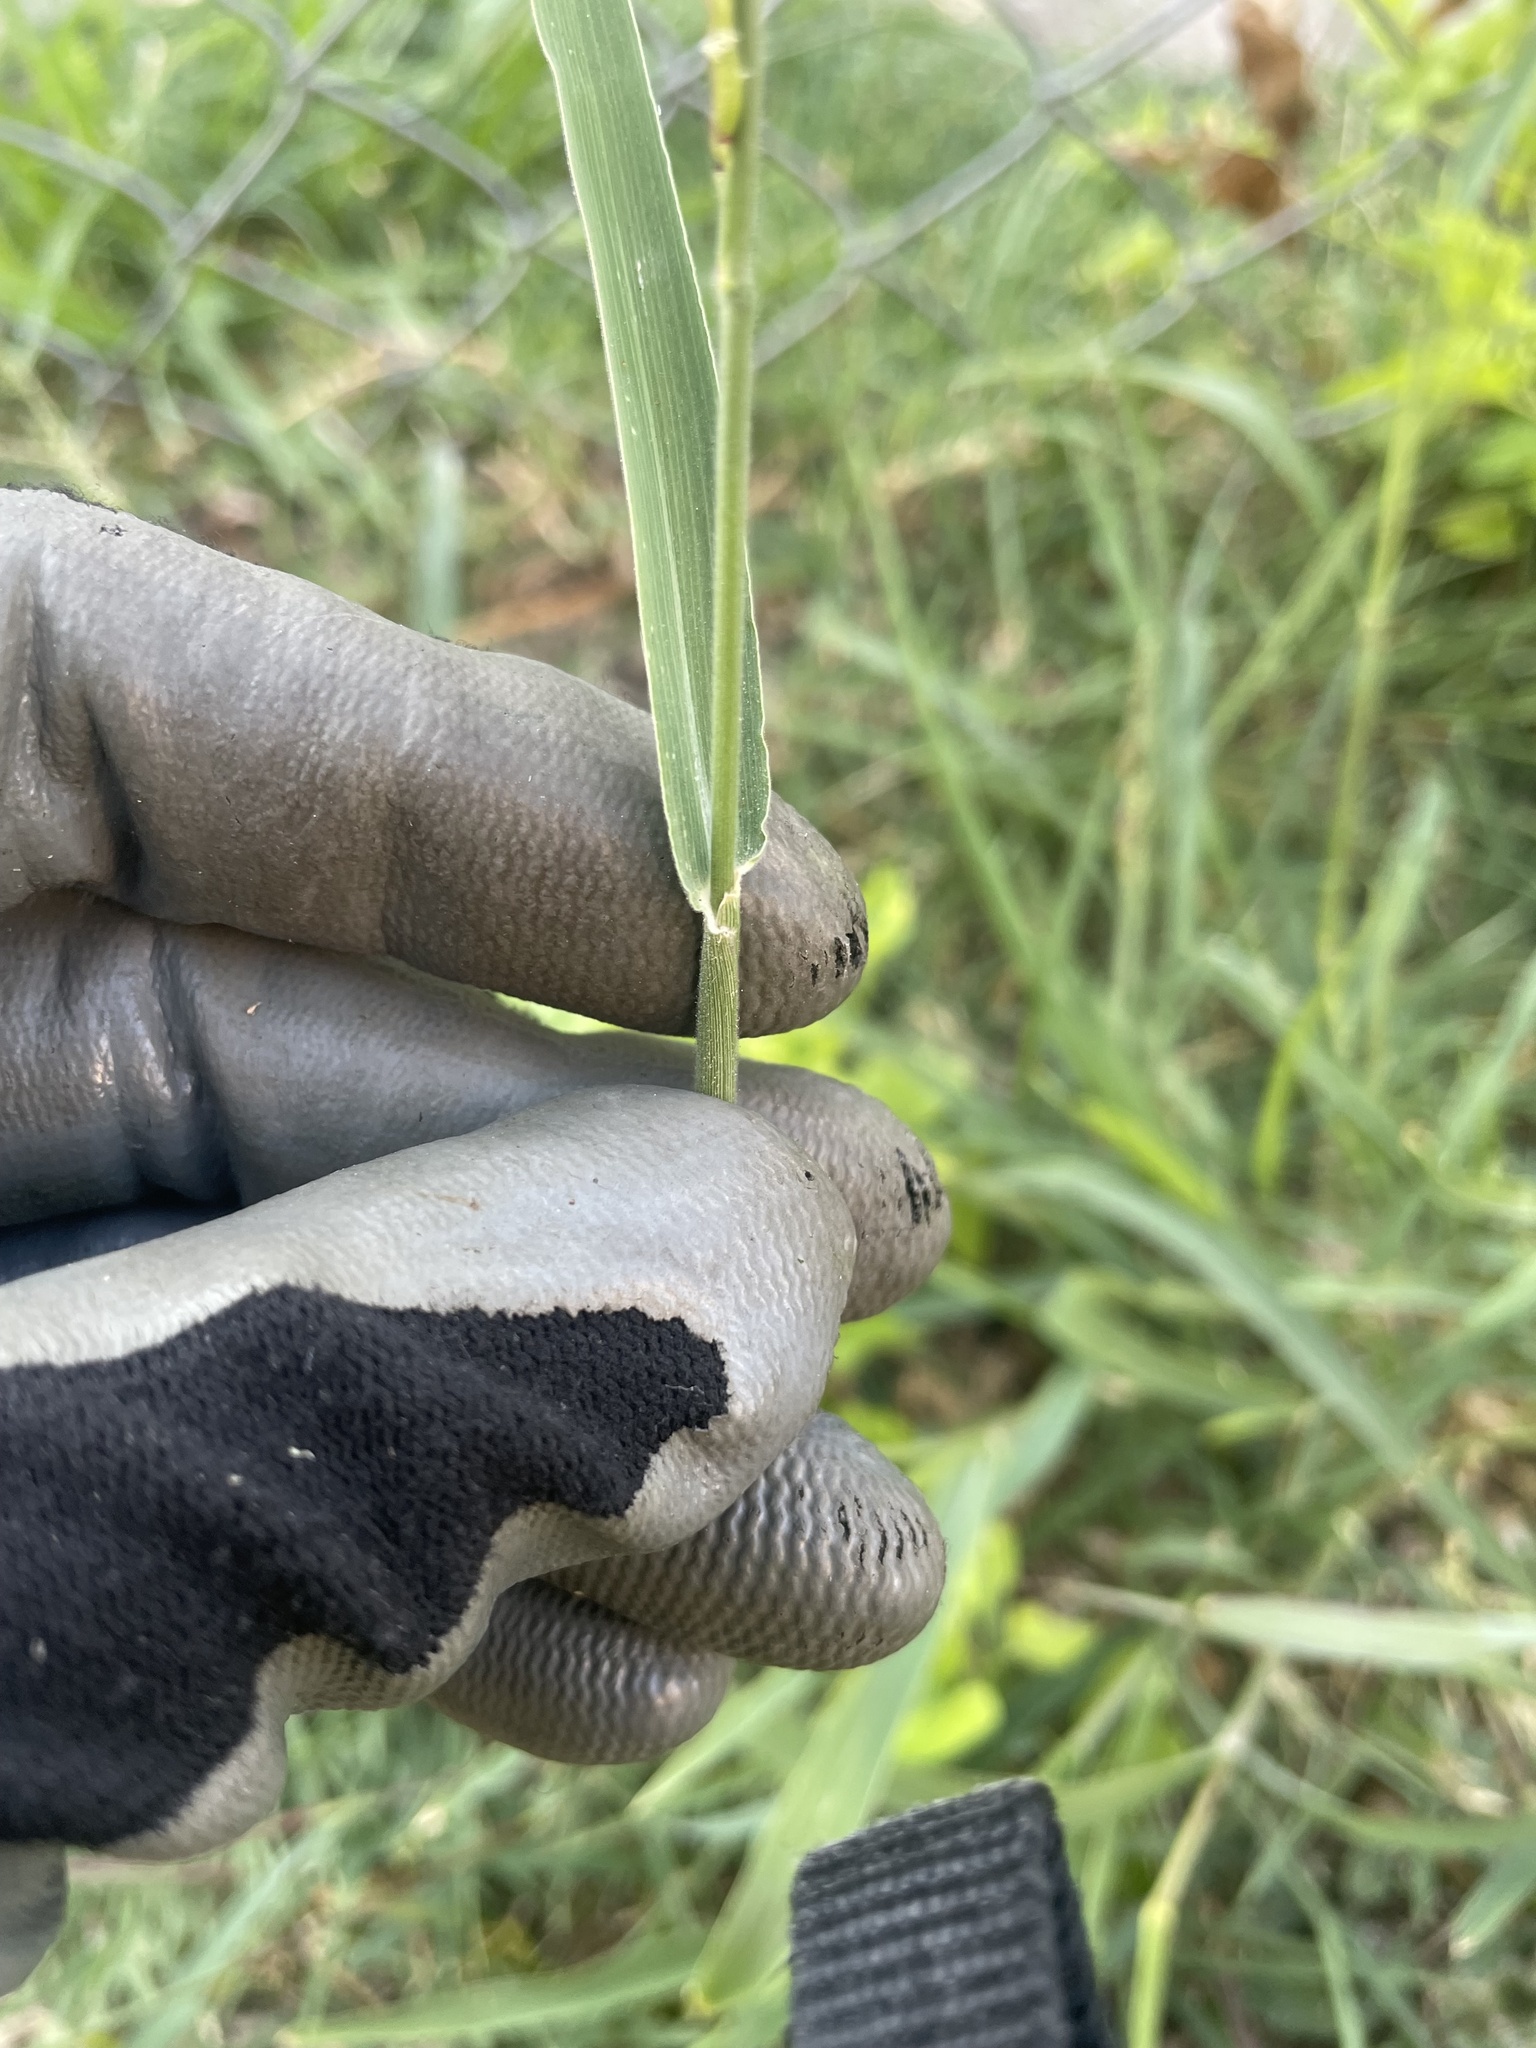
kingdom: Plantae
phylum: Tracheophyta
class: Liliopsida
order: Poales
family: Poaceae
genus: Eriochloa
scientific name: Eriochloa contracta
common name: Prairie cup grass
